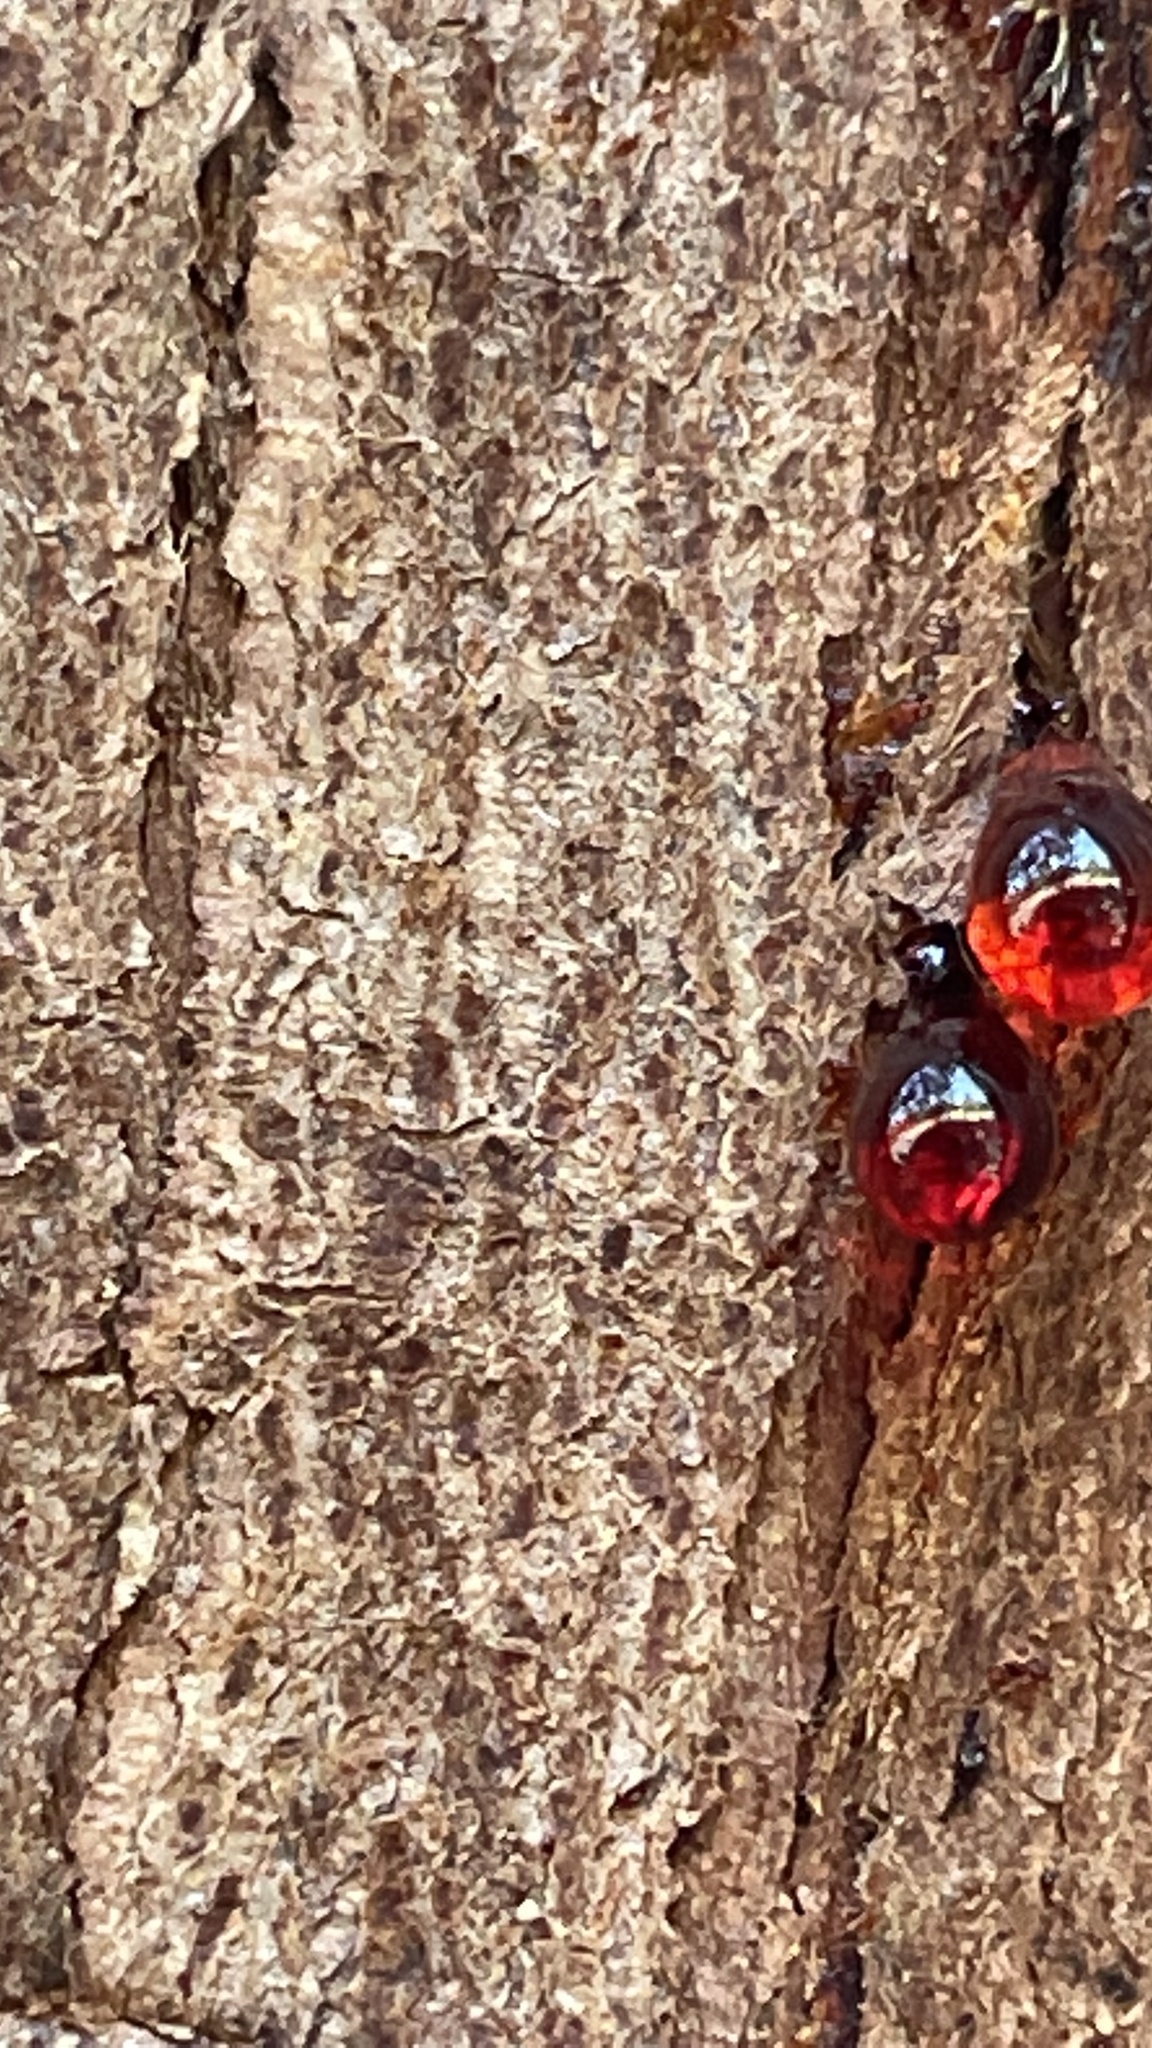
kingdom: Plantae
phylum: Tracheophyta
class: Pinopsida
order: Pinales
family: Cupressaceae
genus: Taxodium
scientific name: Taxodium mucronatum
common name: Montezume bald cypress
